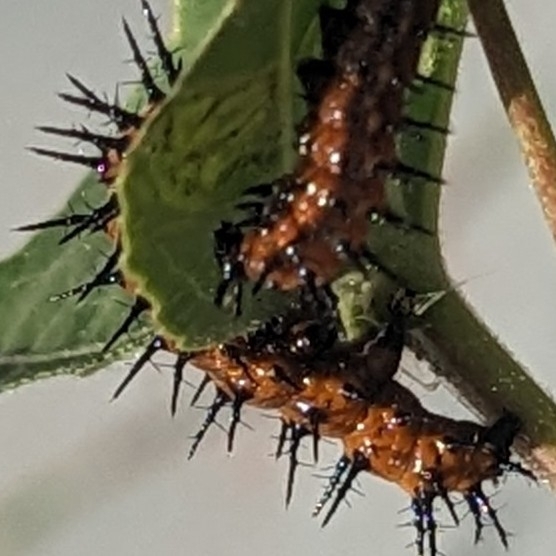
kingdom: Animalia
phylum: Arthropoda
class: Insecta
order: Lepidoptera
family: Nymphalidae
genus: Dione
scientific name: Dione vanillae
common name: Gulf fritillary
